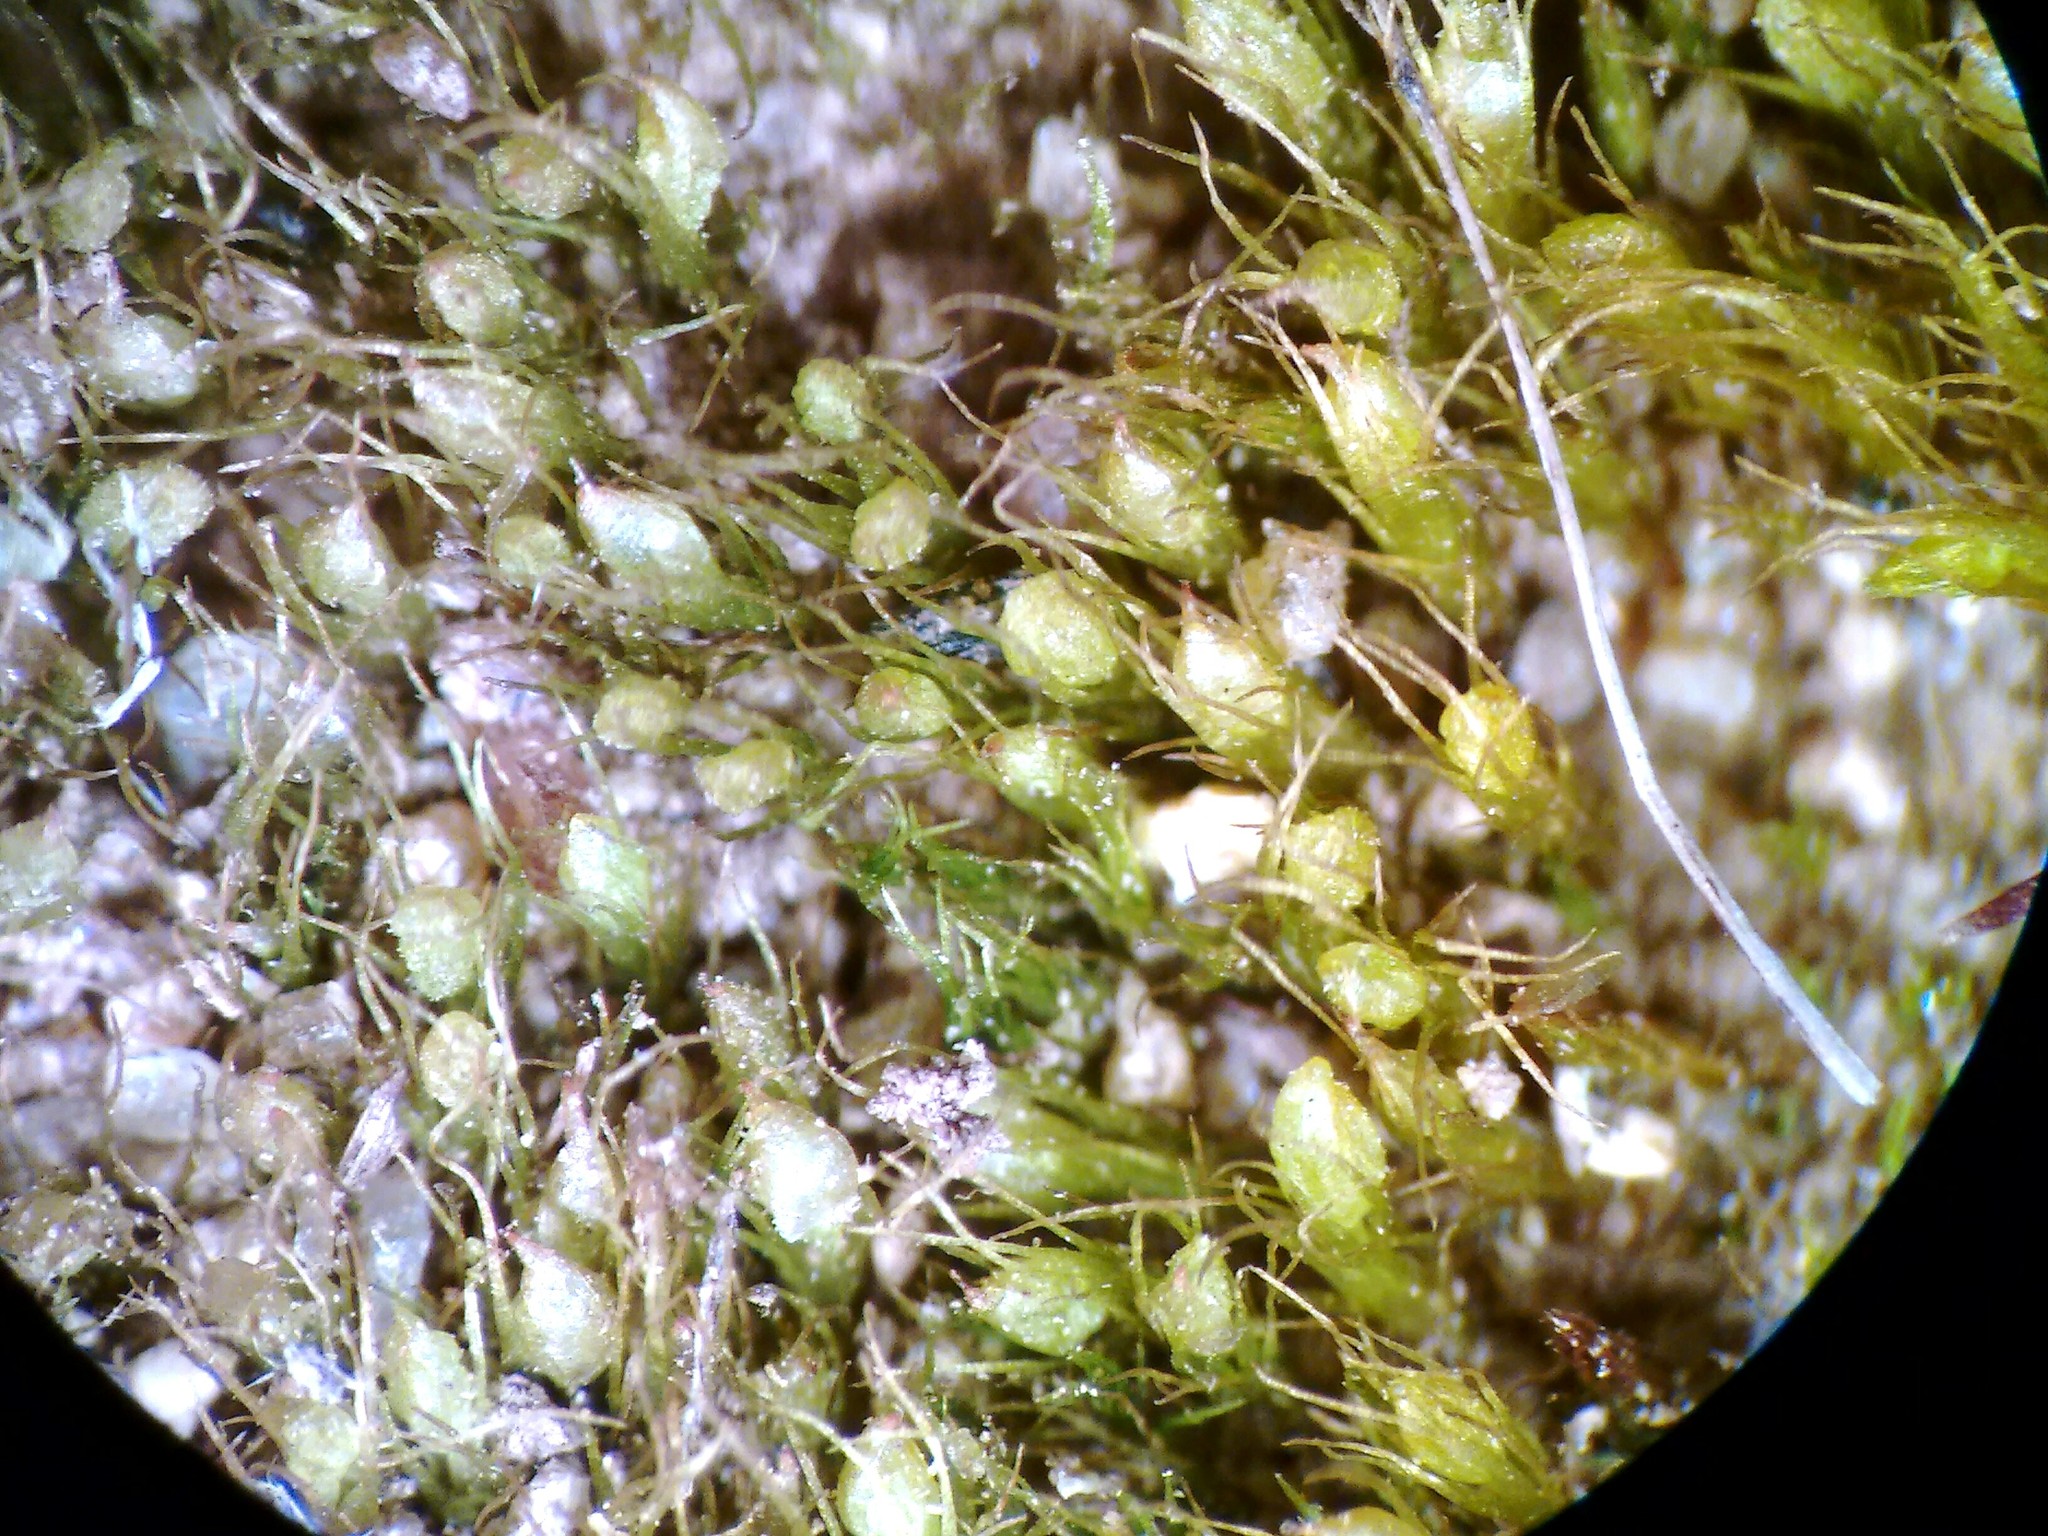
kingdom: Plantae
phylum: Bryophyta
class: Bryopsida
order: Dicranales
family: Ditrichaceae
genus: Pleuridium
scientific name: Pleuridium subulatum
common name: Awl-leaved earth-moss
